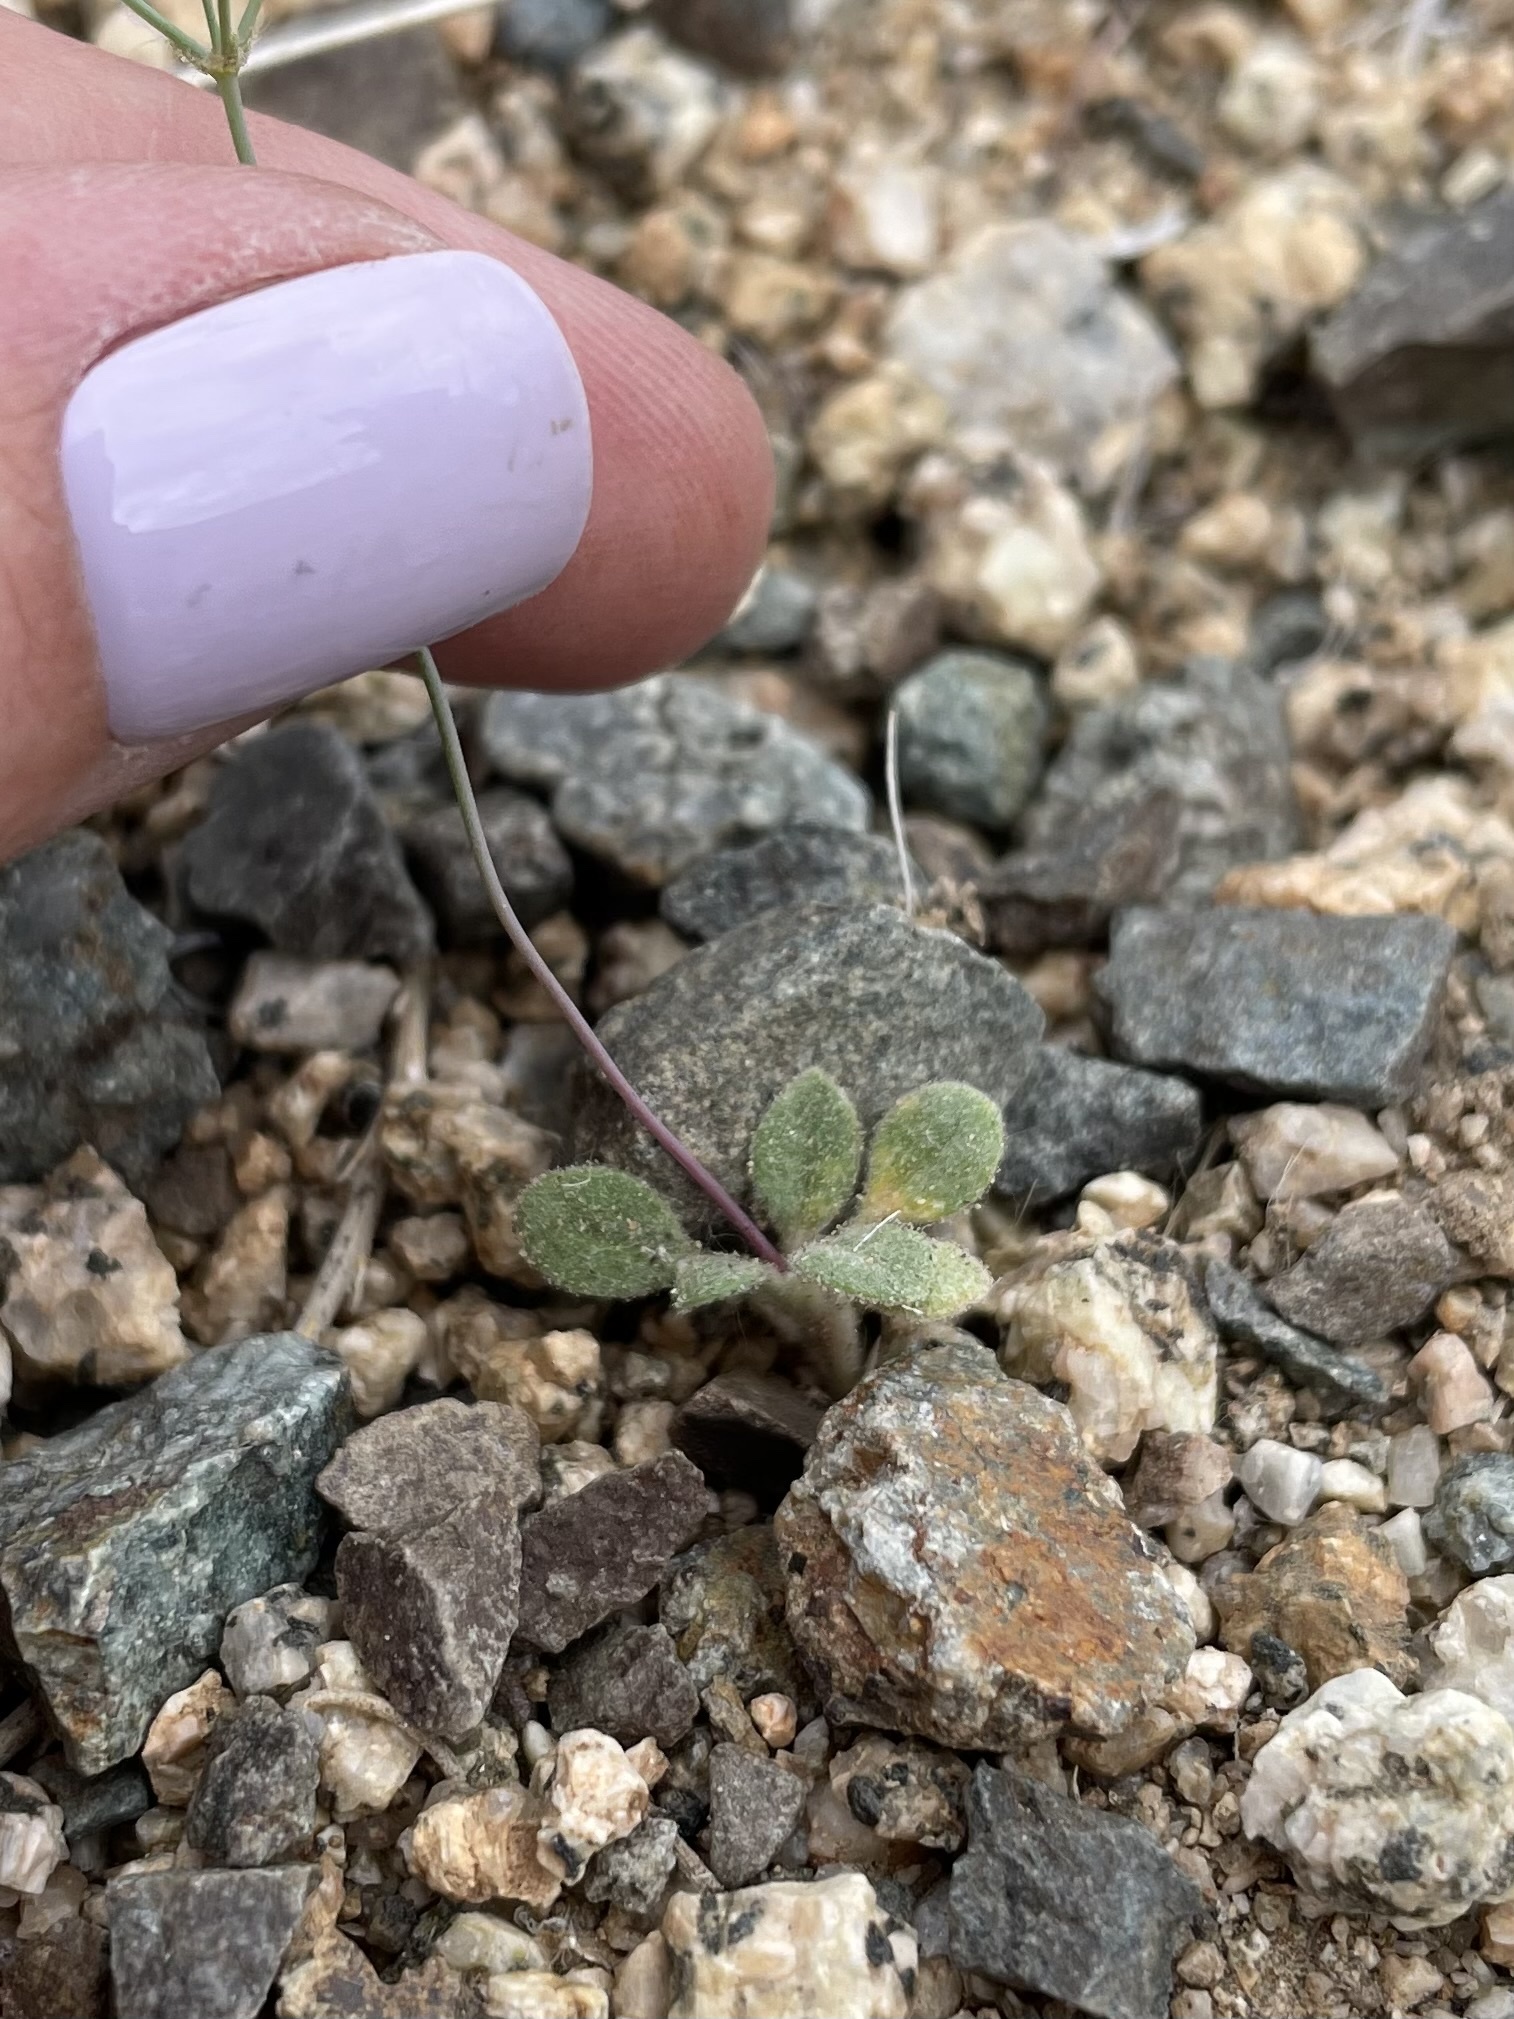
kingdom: Plantae
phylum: Tracheophyta
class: Magnoliopsida
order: Caryophyllales
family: Polygonaceae
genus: Eriogonum
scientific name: Eriogonum pusillum
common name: Yellow turbans
